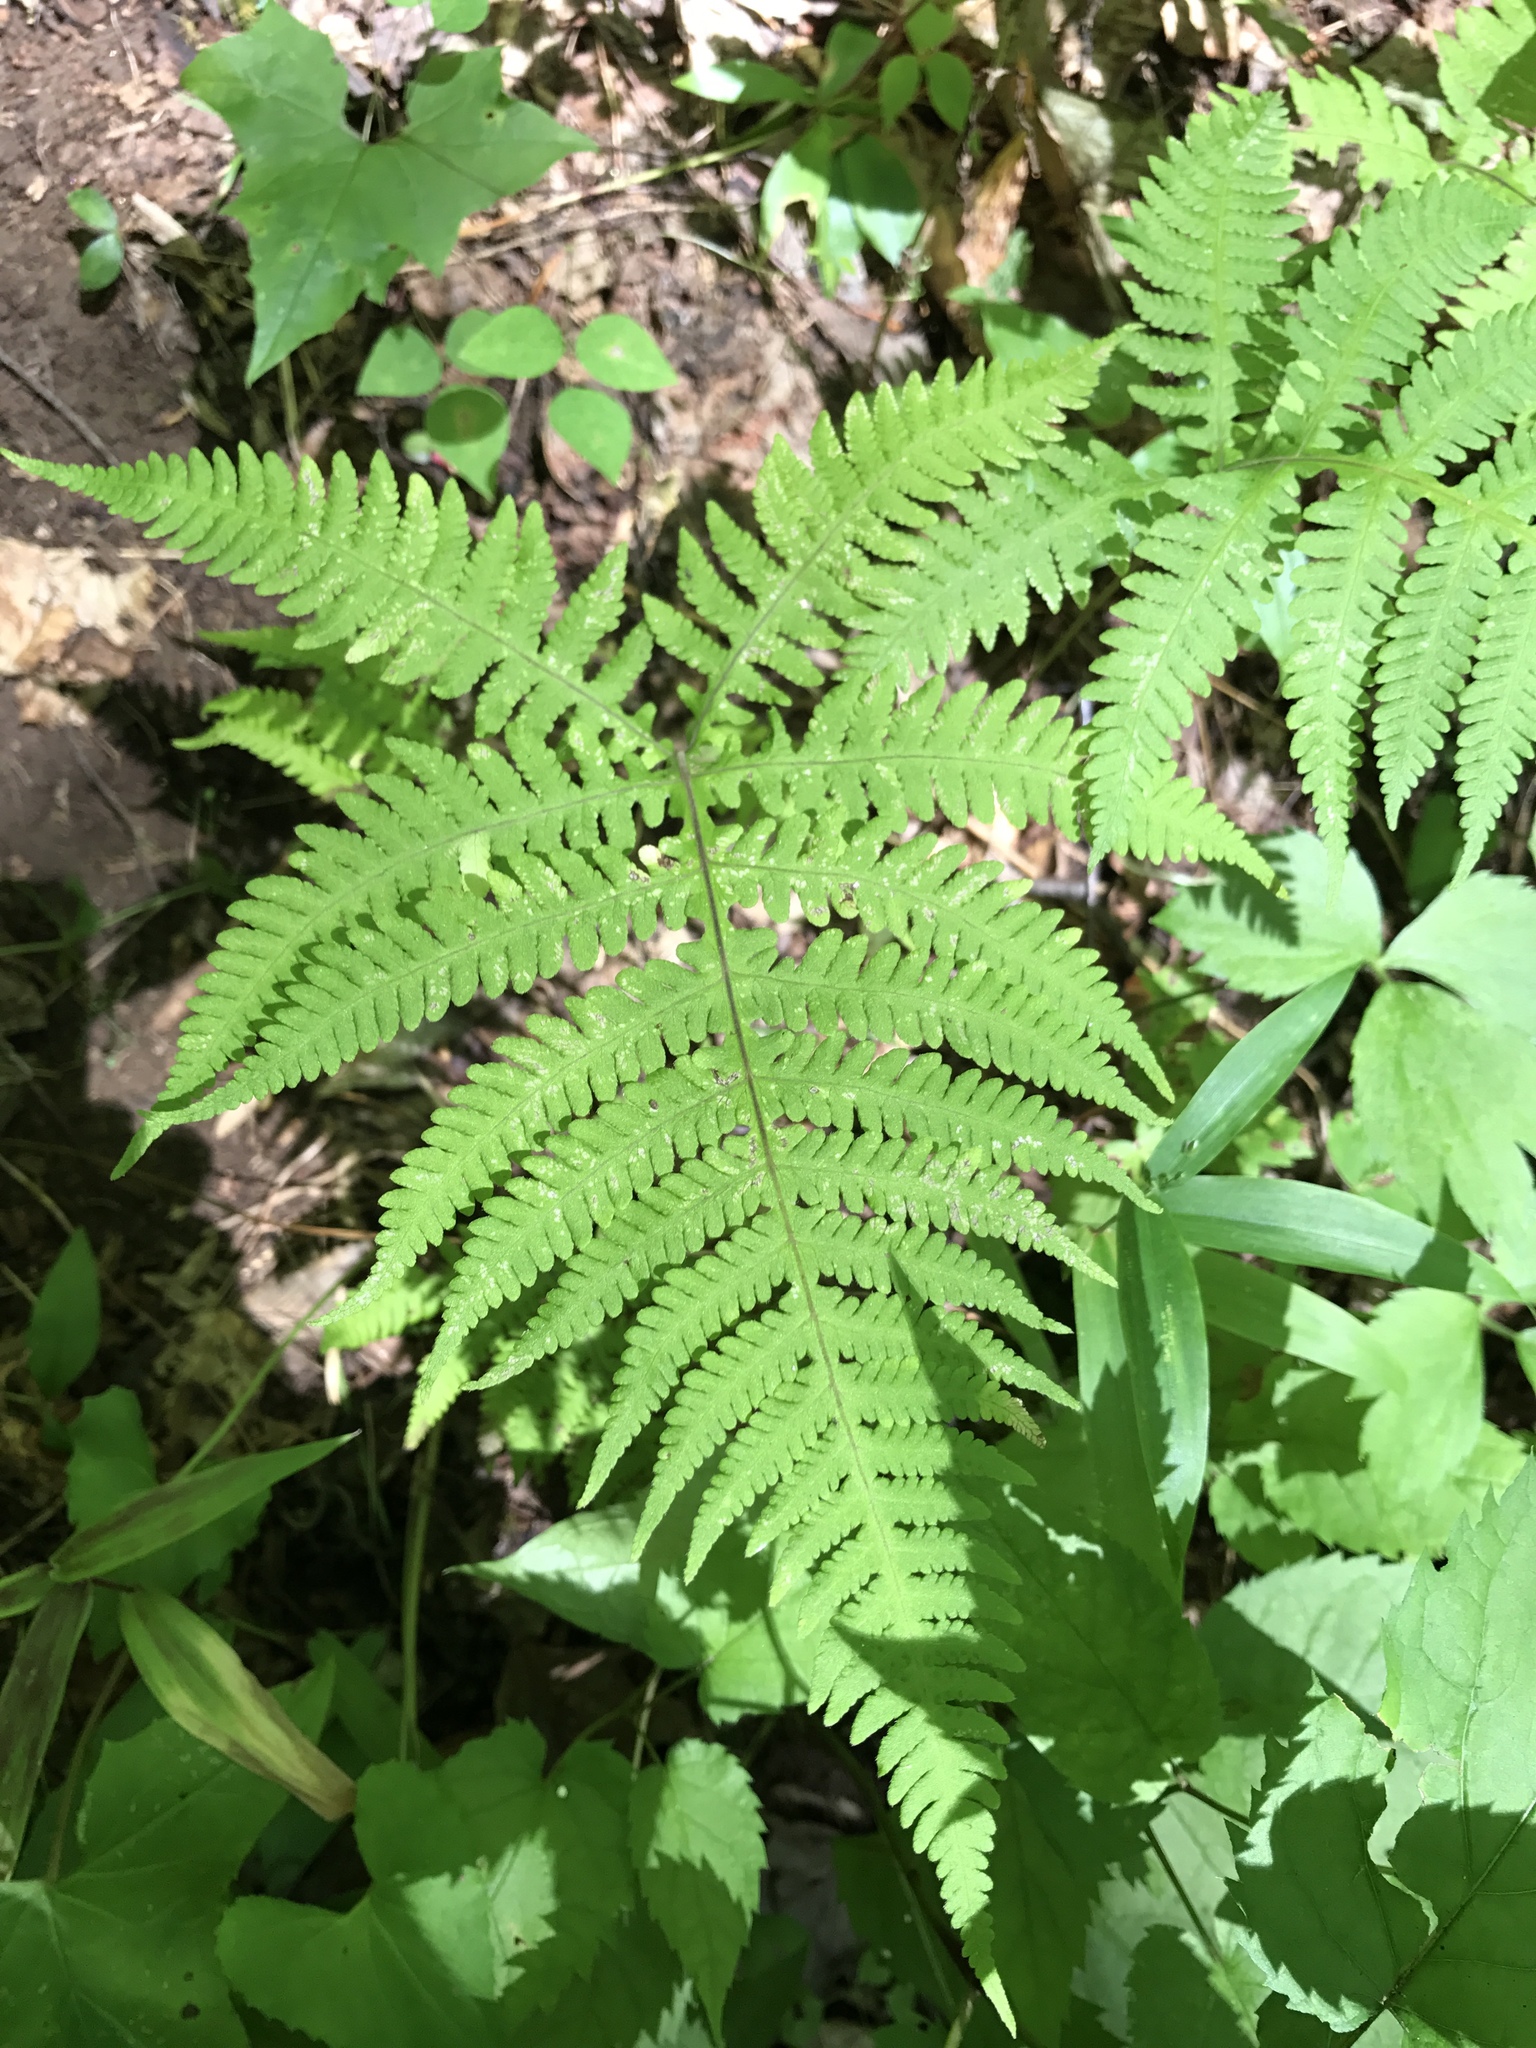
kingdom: Plantae
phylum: Tracheophyta
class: Polypodiopsida
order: Polypodiales
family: Thelypteridaceae
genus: Phegopteris
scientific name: Phegopteris hexagonoptera
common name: Broad beech fern
